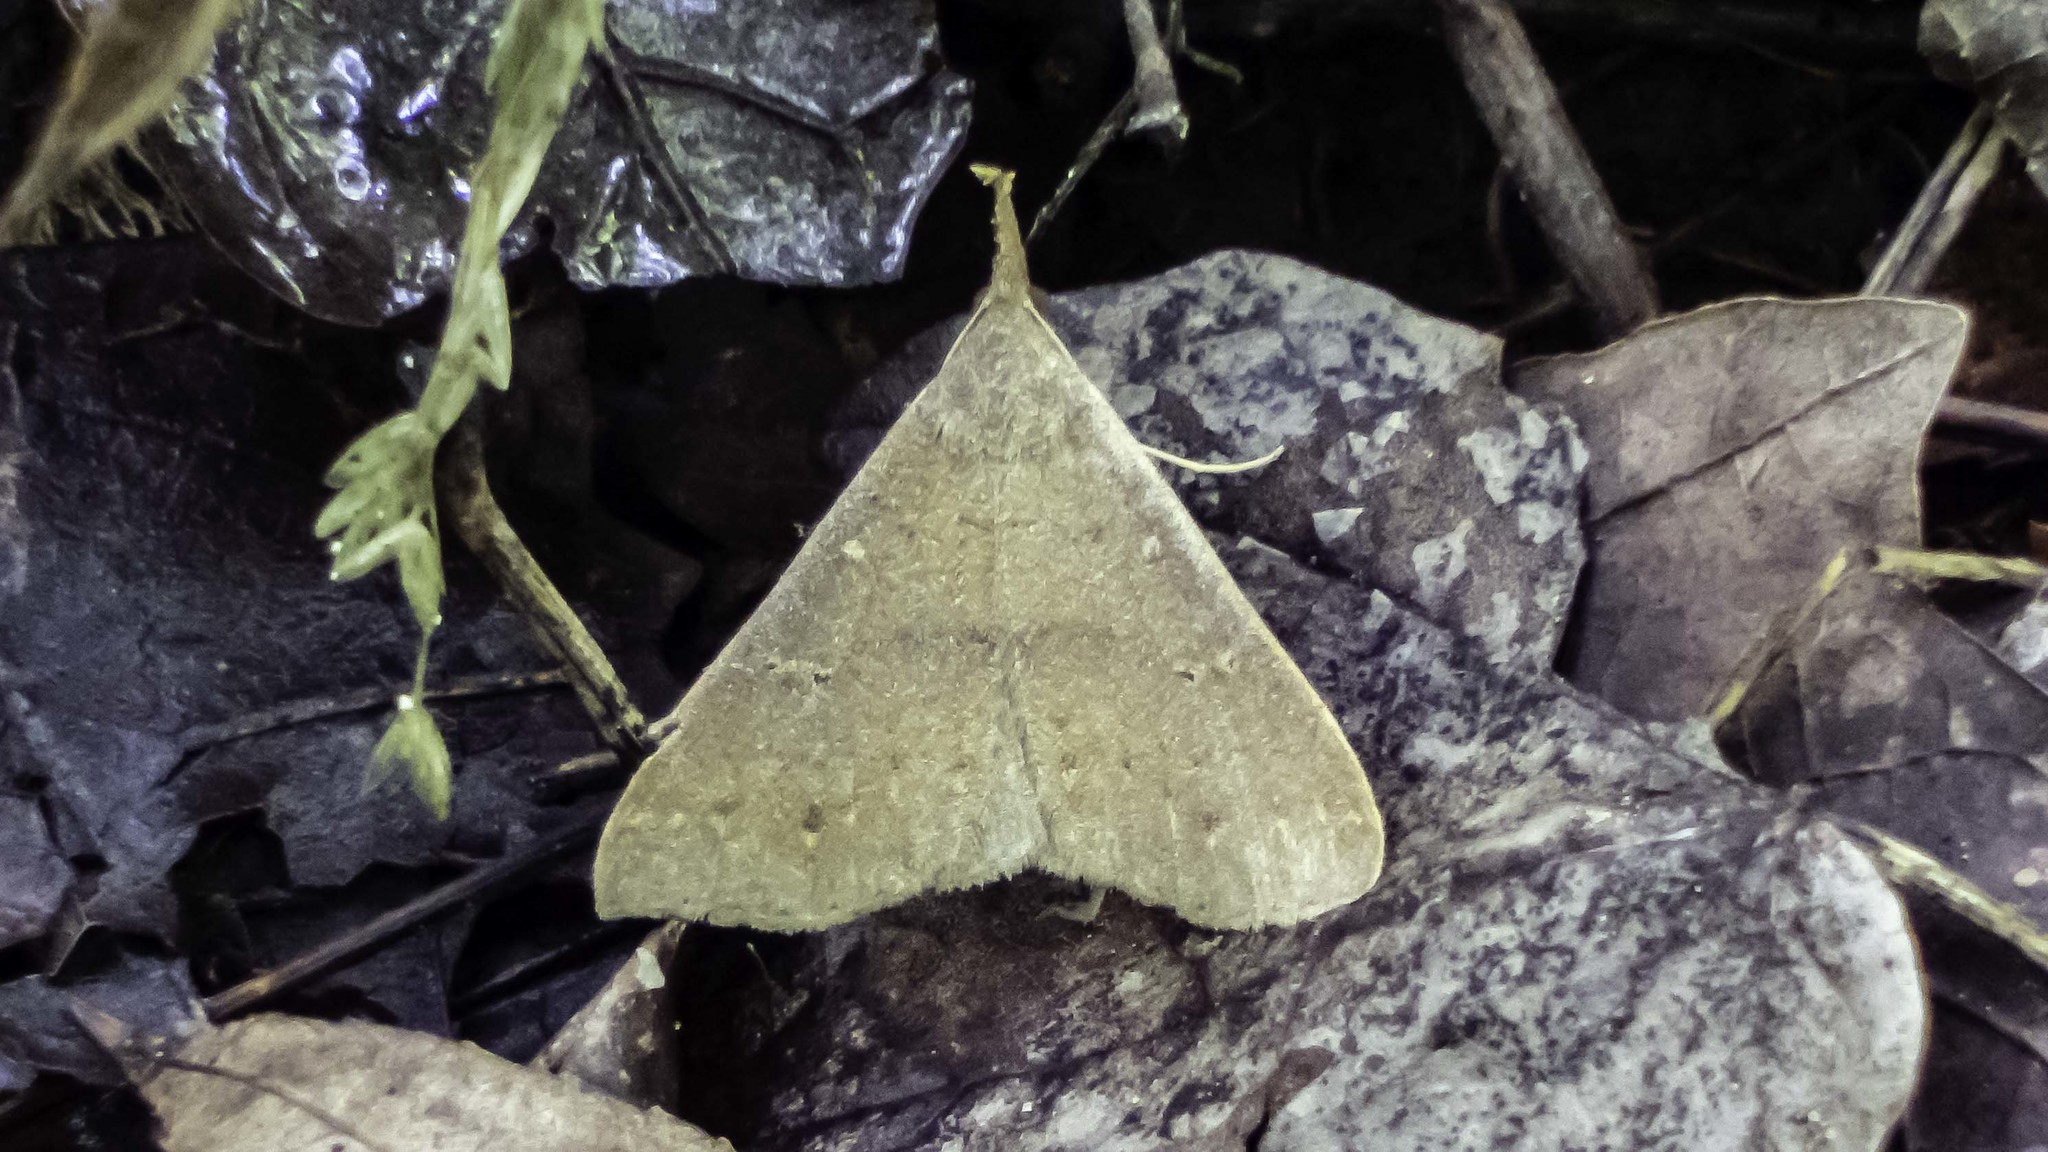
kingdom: Animalia
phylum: Arthropoda
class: Insecta
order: Lepidoptera
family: Erebidae
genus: Renia
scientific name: Renia adspergillus
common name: Speckled renia moth
